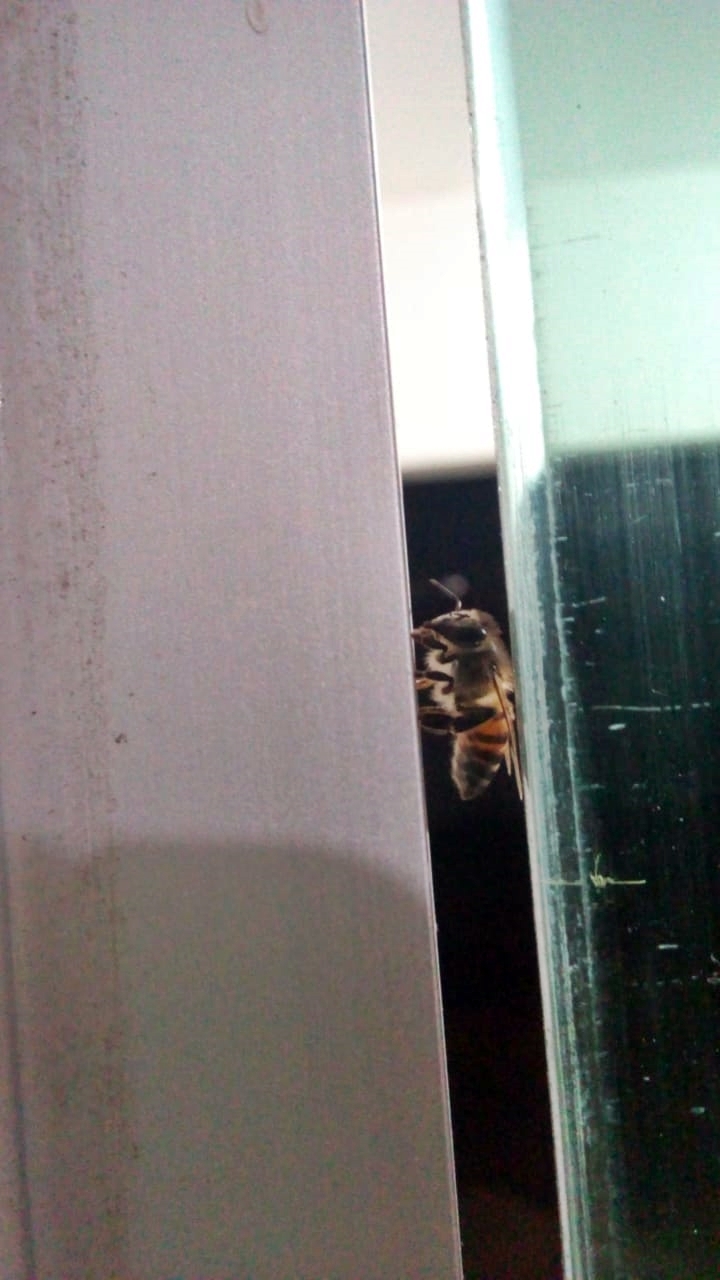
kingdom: Animalia
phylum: Arthropoda
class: Insecta
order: Hymenoptera
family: Apidae
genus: Apis
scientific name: Apis mellifera
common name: Honey bee
